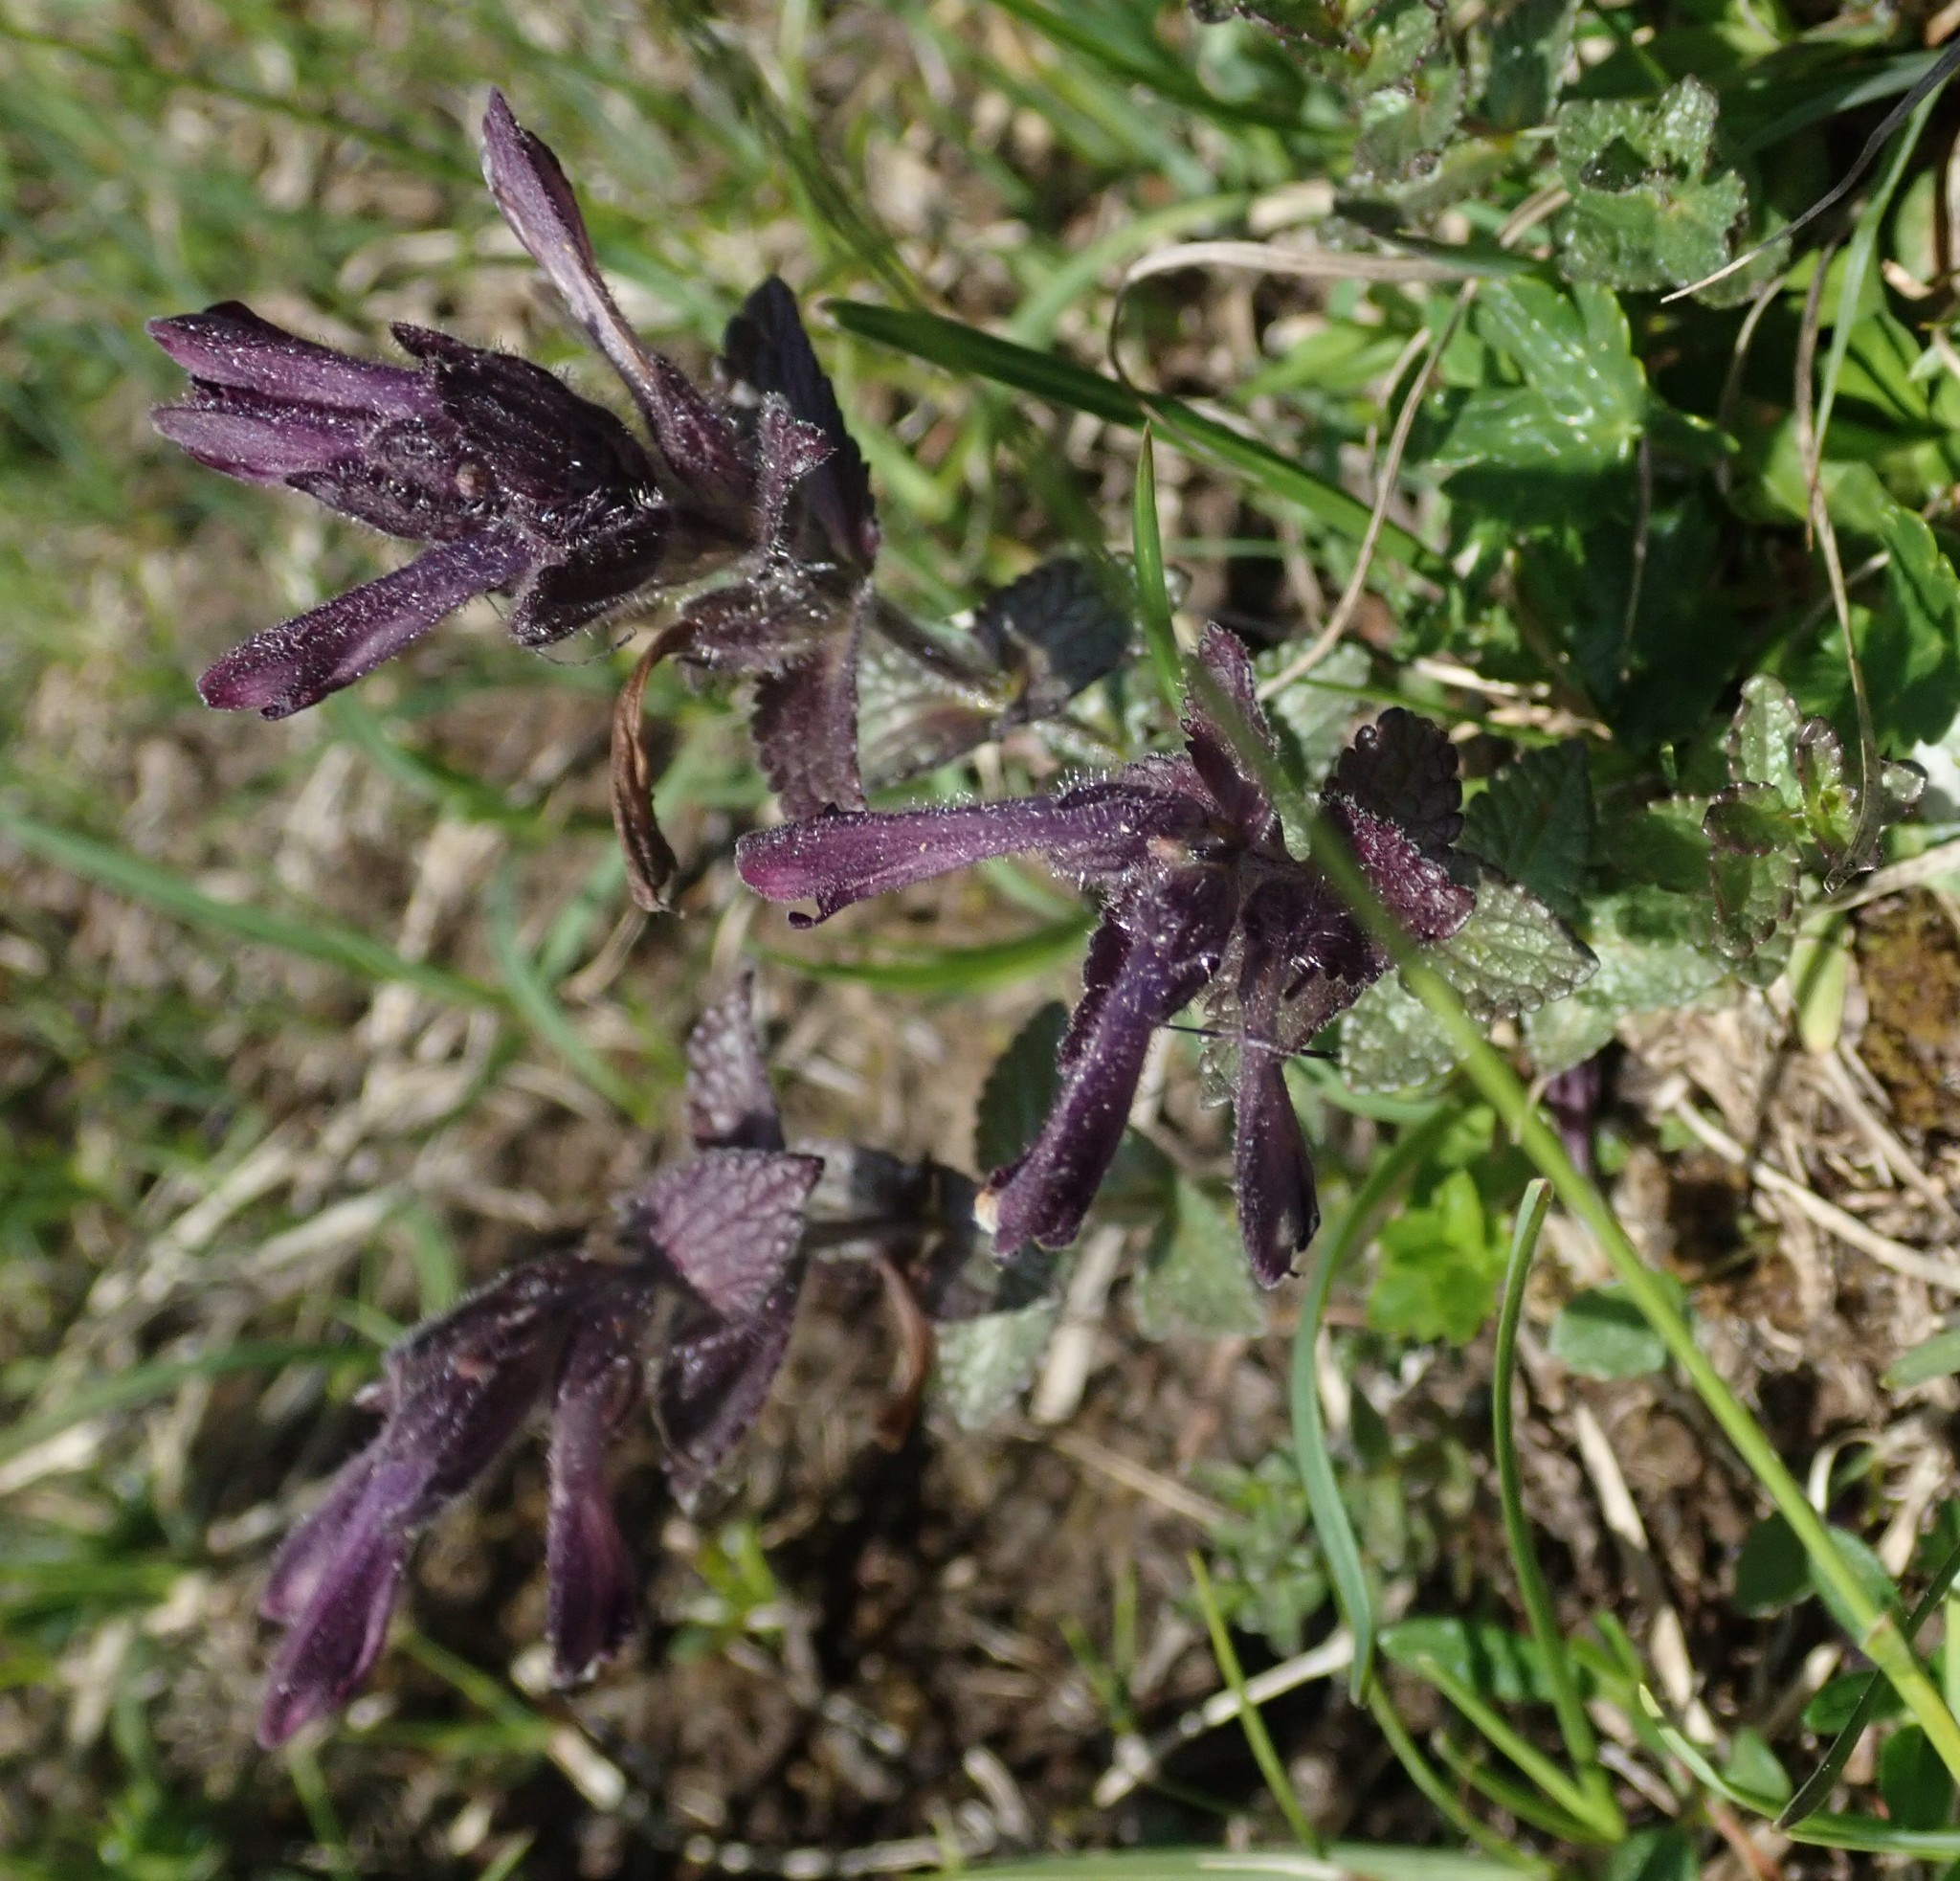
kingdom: Plantae
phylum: Tracheophyta
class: Magnoliopsida
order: Lamiales
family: Orobanchaceae
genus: Bartsia
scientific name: Bartsia alpina
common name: Alpine bartsia
